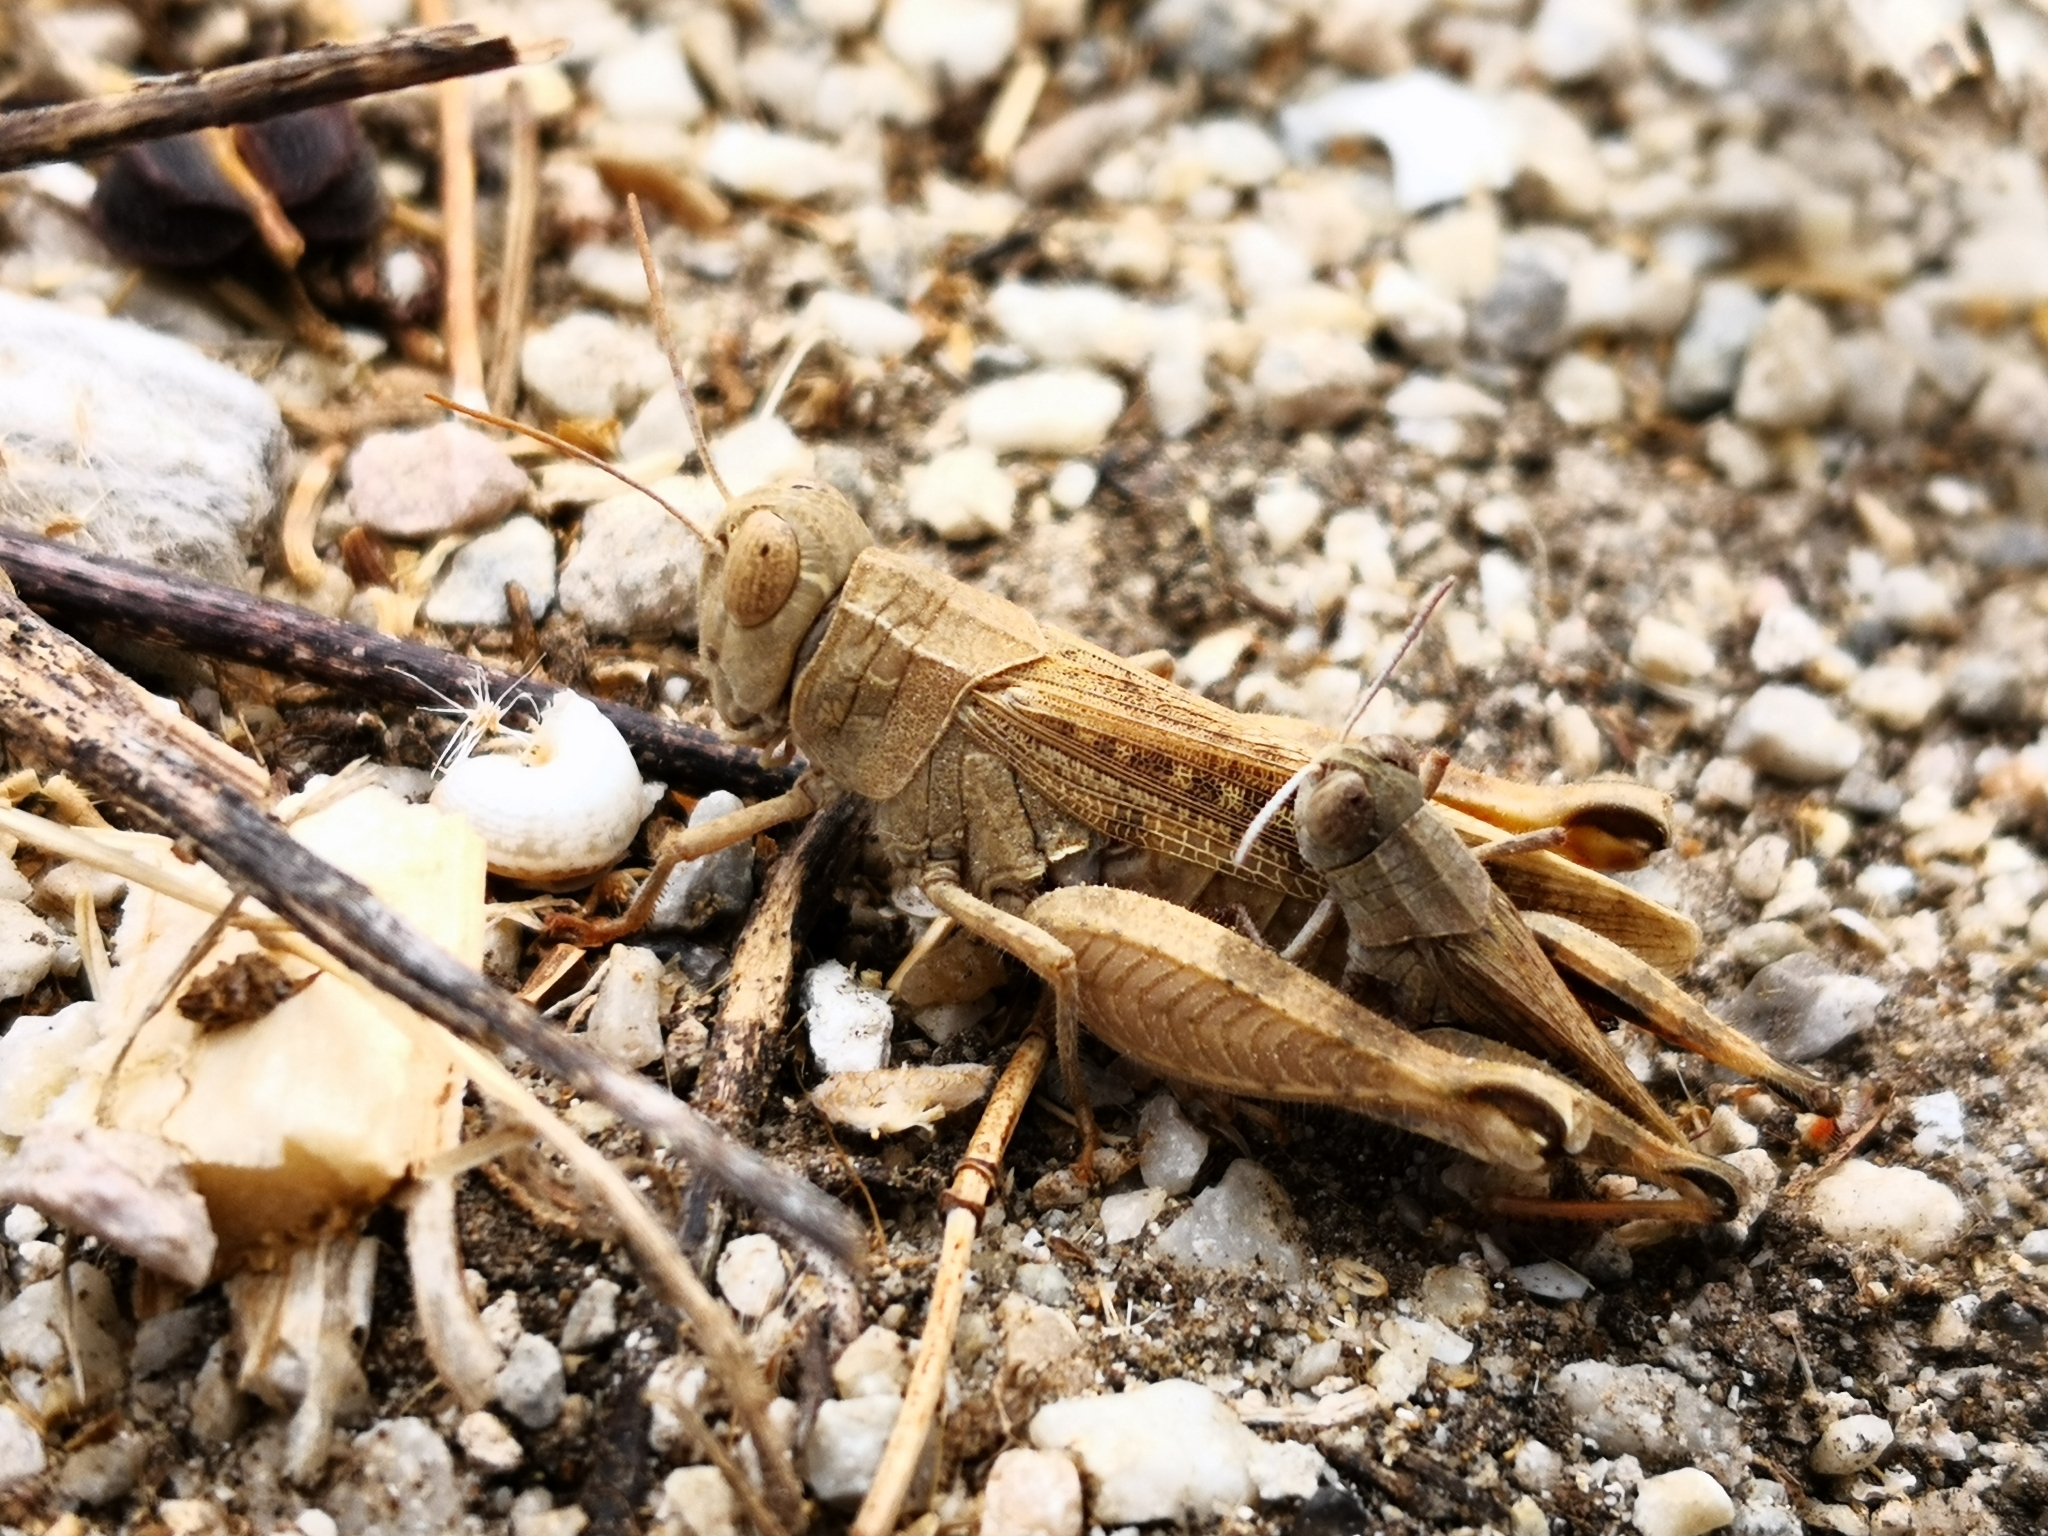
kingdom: Animalia
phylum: Arthropoda
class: Insecta
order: Orthoptera
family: Acrididae
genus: Calliptamus
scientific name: Calliptamus
